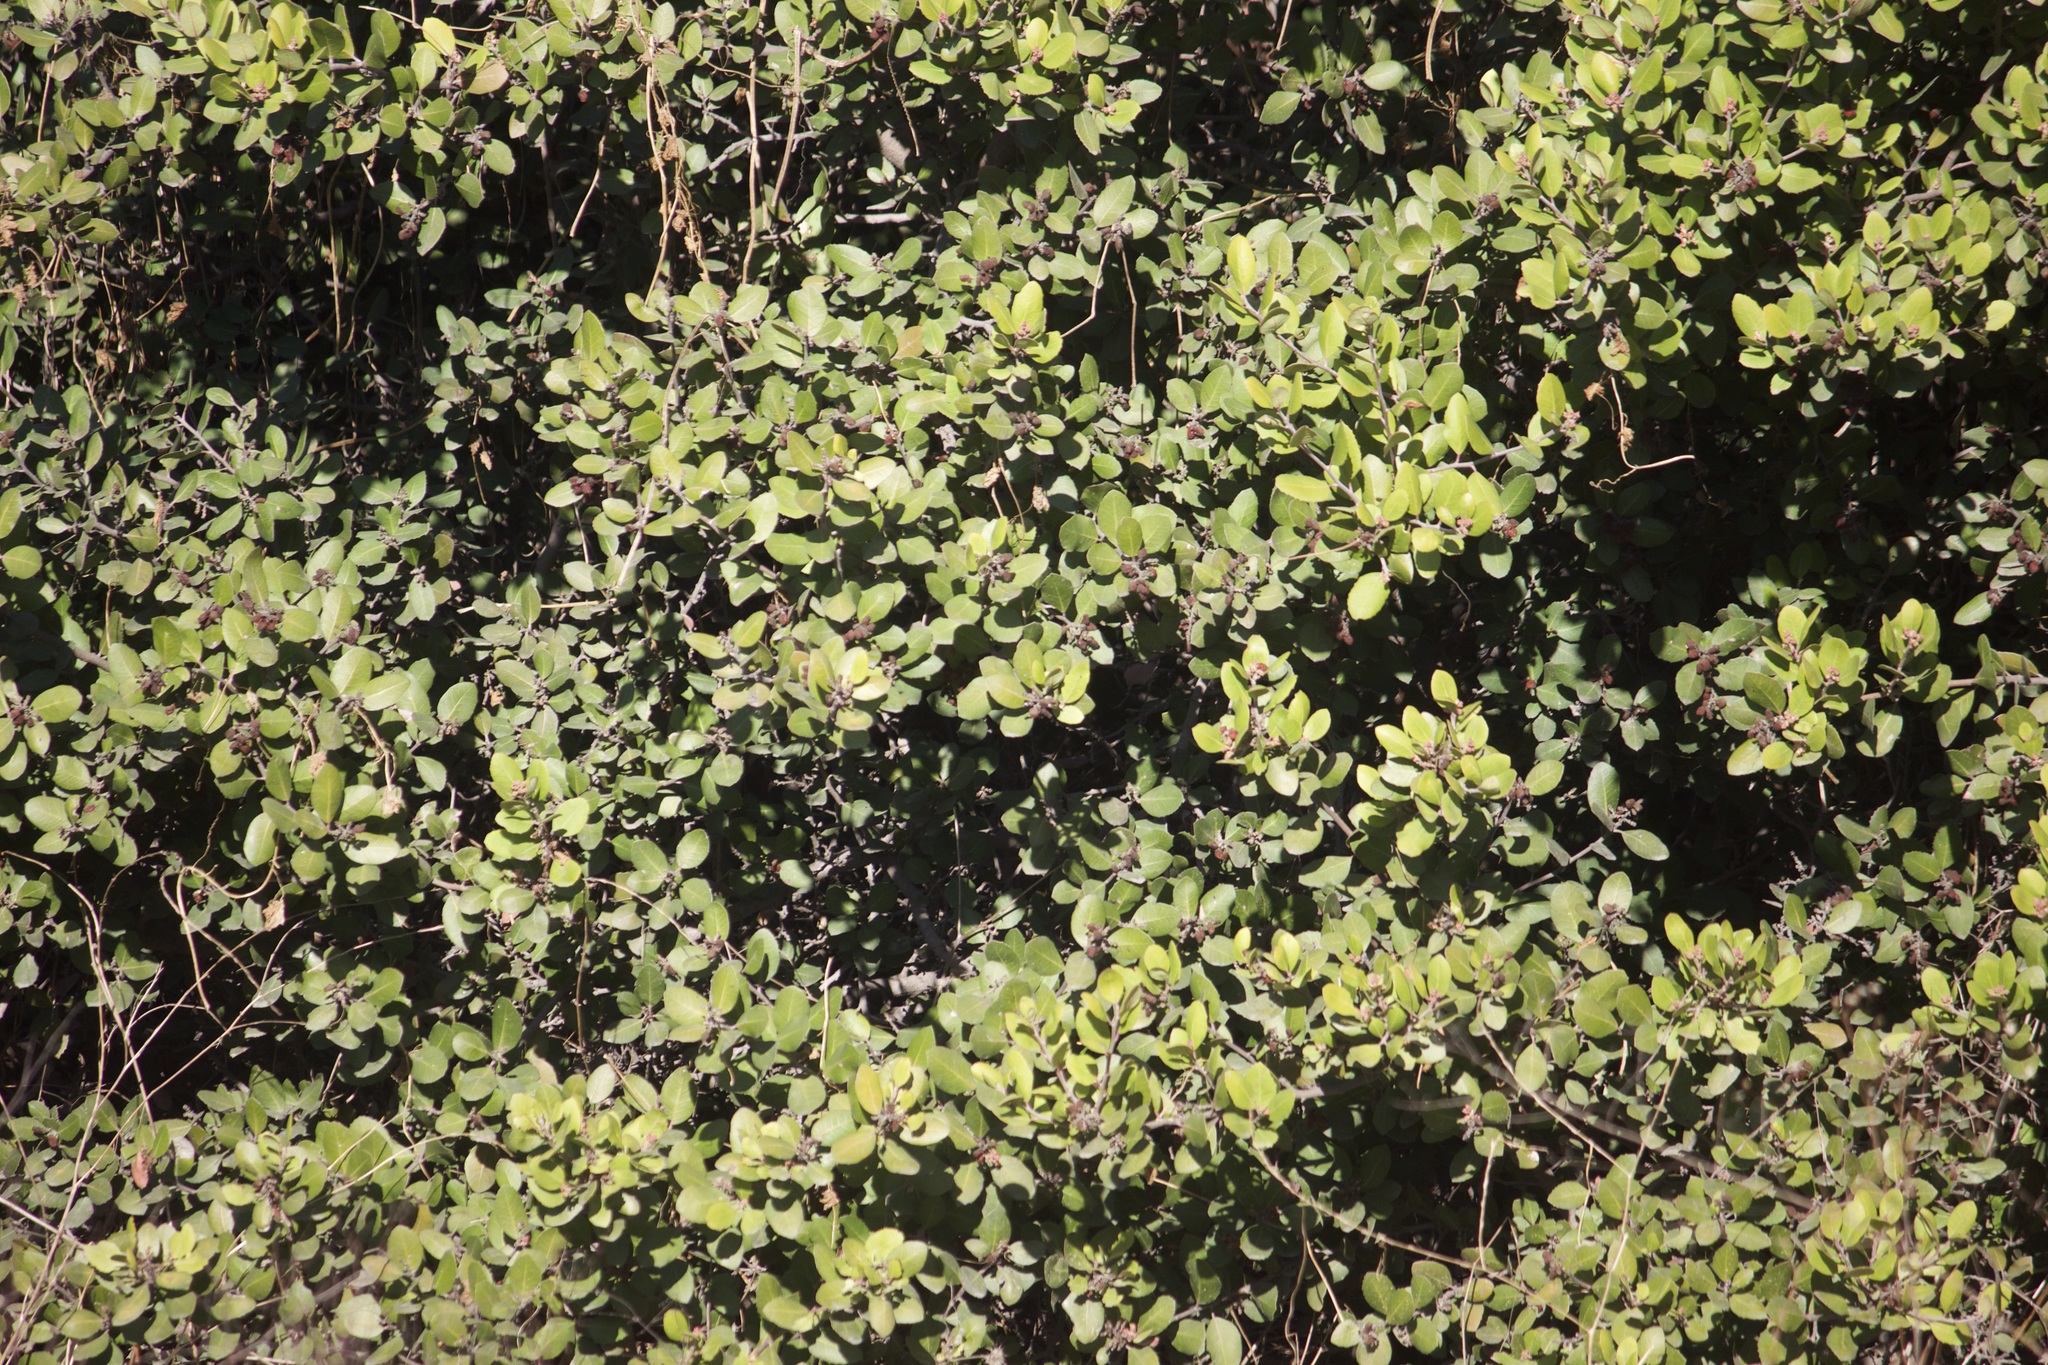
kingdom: Plantae
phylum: Tracheophyta
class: Magnoliopsida
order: Sapindales
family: Anacardiaceae
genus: Rhus
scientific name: Rhus integrifolia
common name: Lemonade sumac
